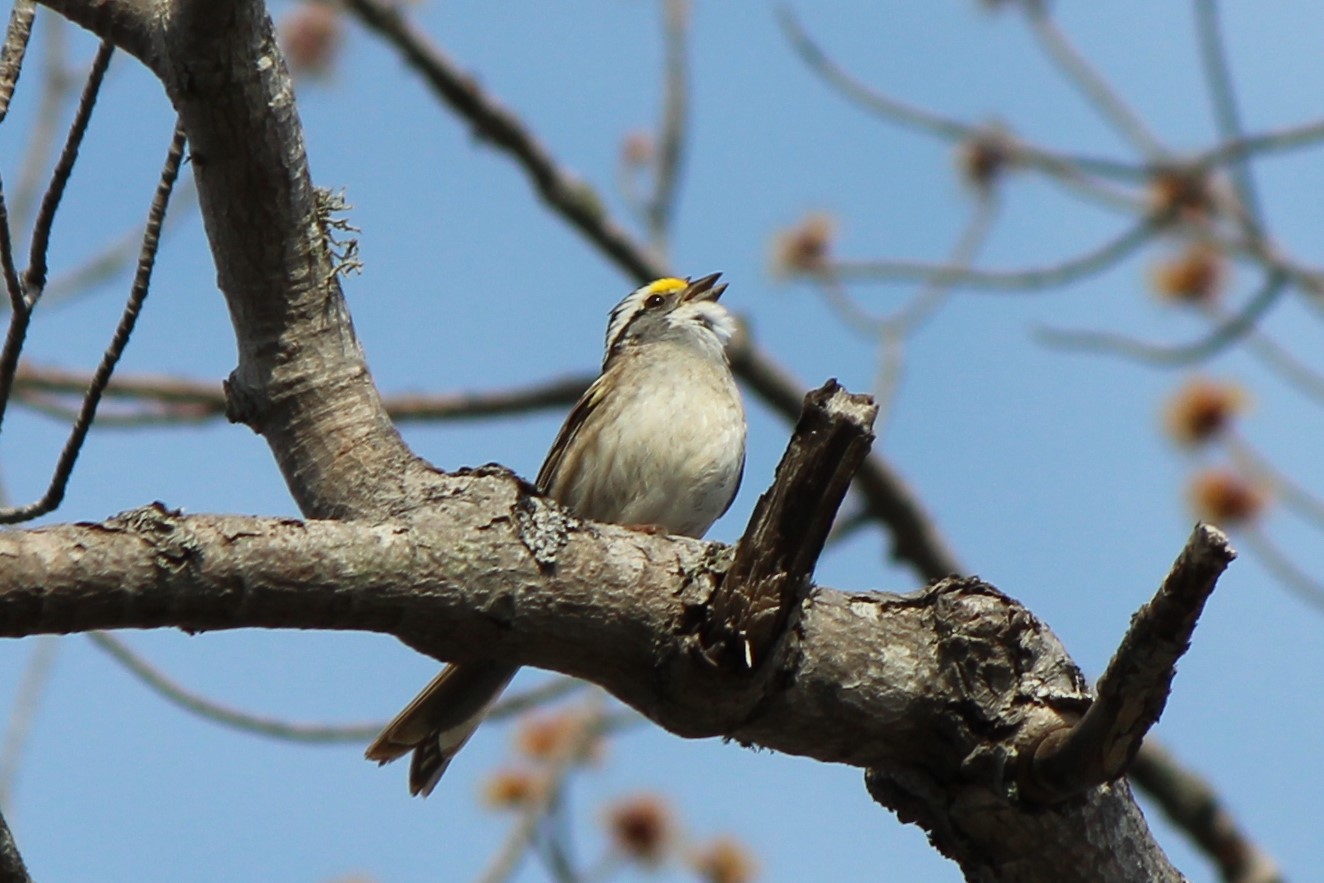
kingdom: Animalia
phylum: Chordata
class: Aves
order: Passeriformes
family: Passerellidae
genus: Zonotrichia
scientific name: Zonotrichia albicollis
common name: White-throated sparrow
